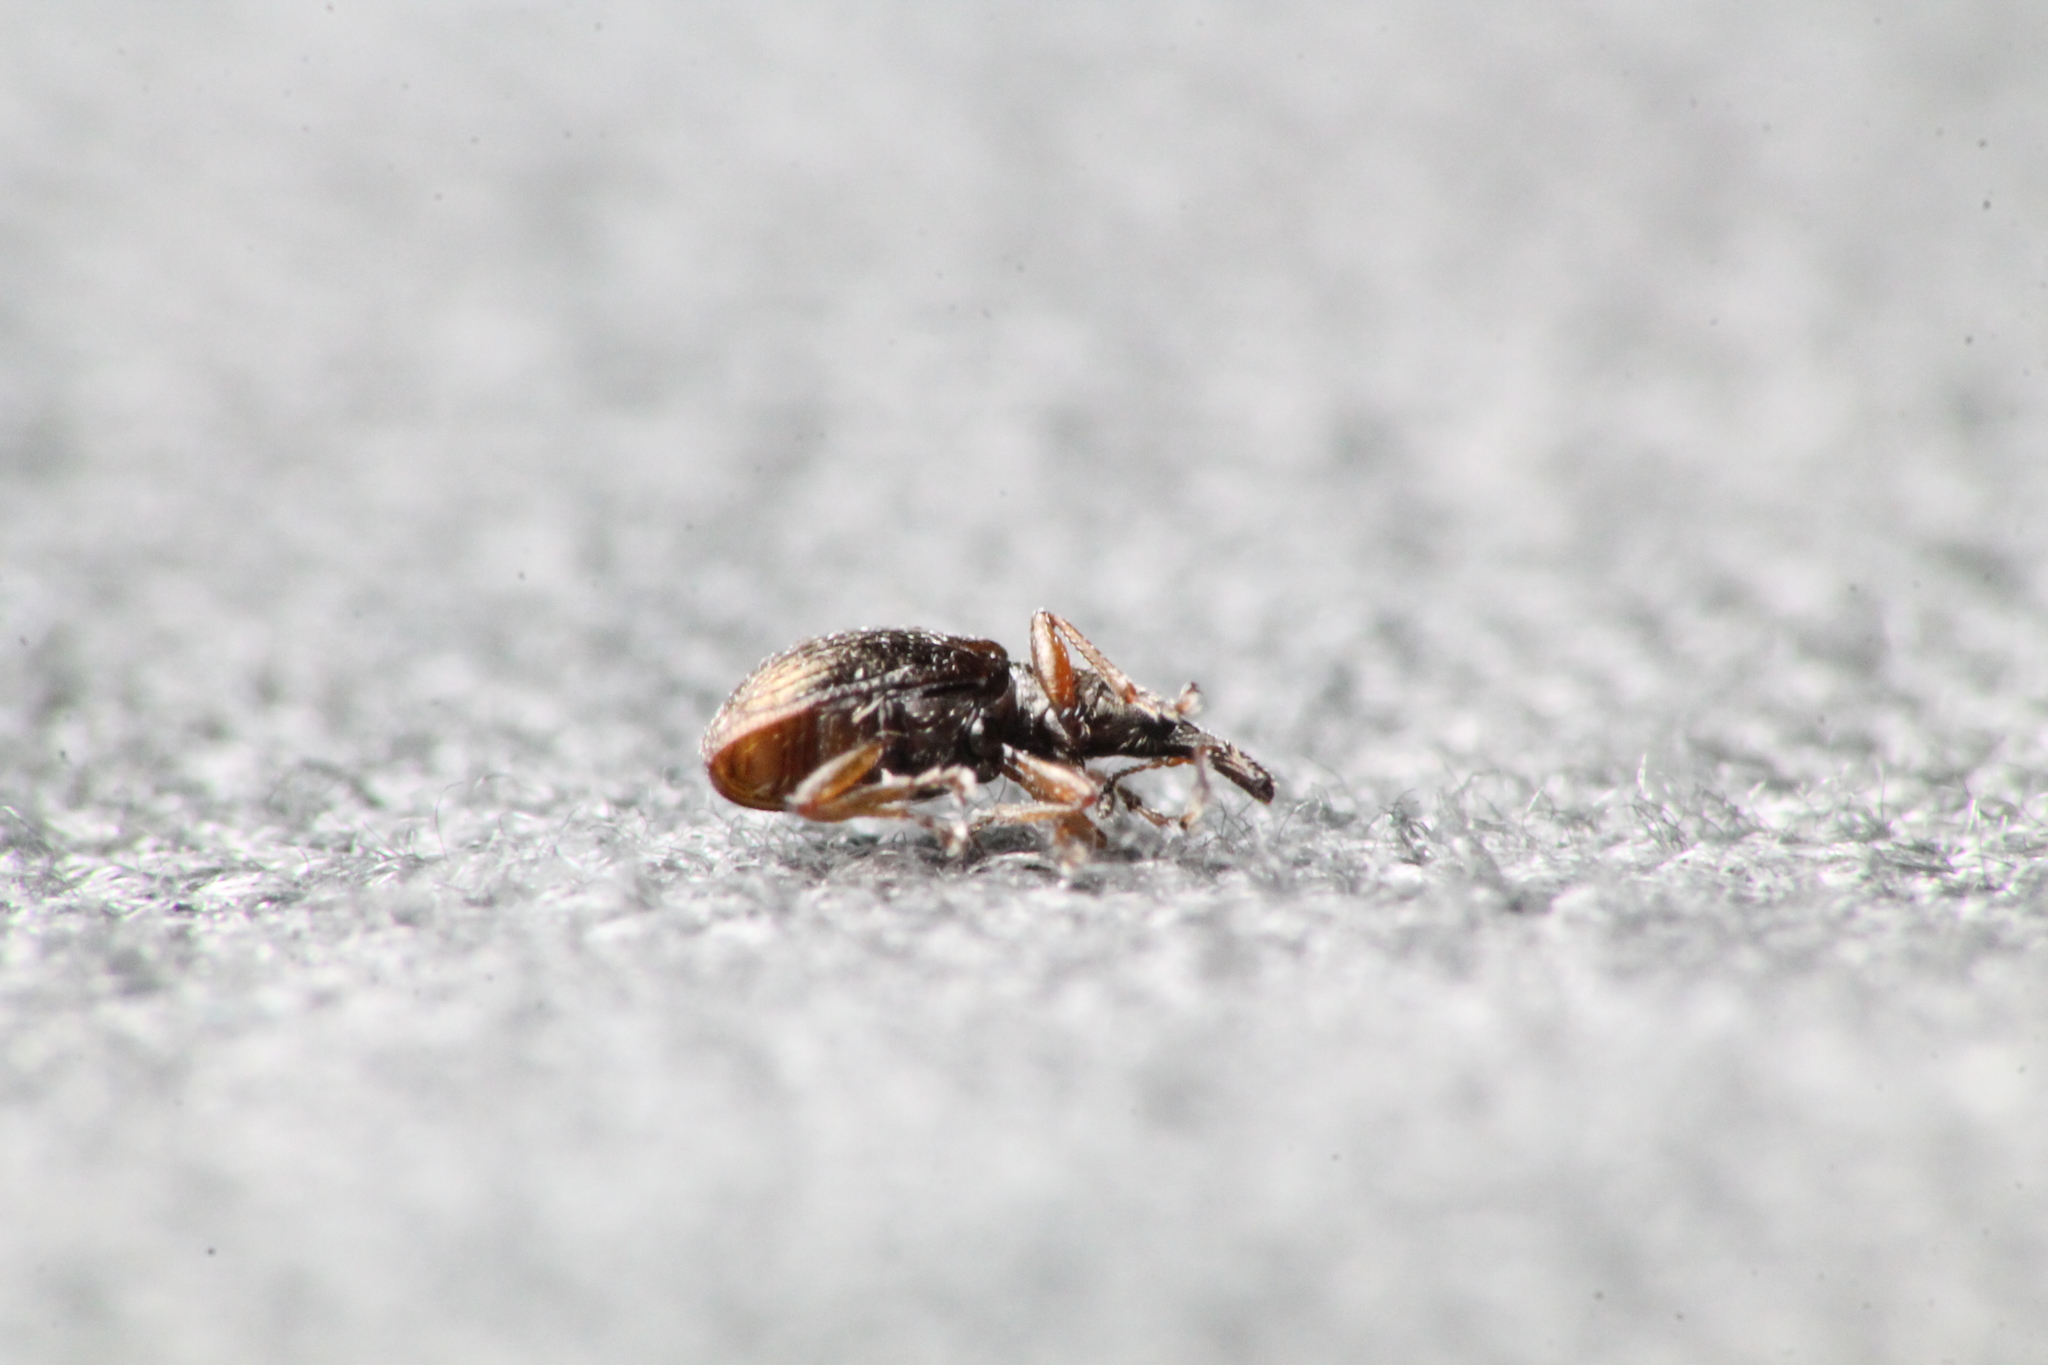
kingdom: Animalia
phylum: Arthropoda
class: Insecta
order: Coleoptera
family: Brentidae
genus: Neocyba
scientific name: Neocyba metrosideros
